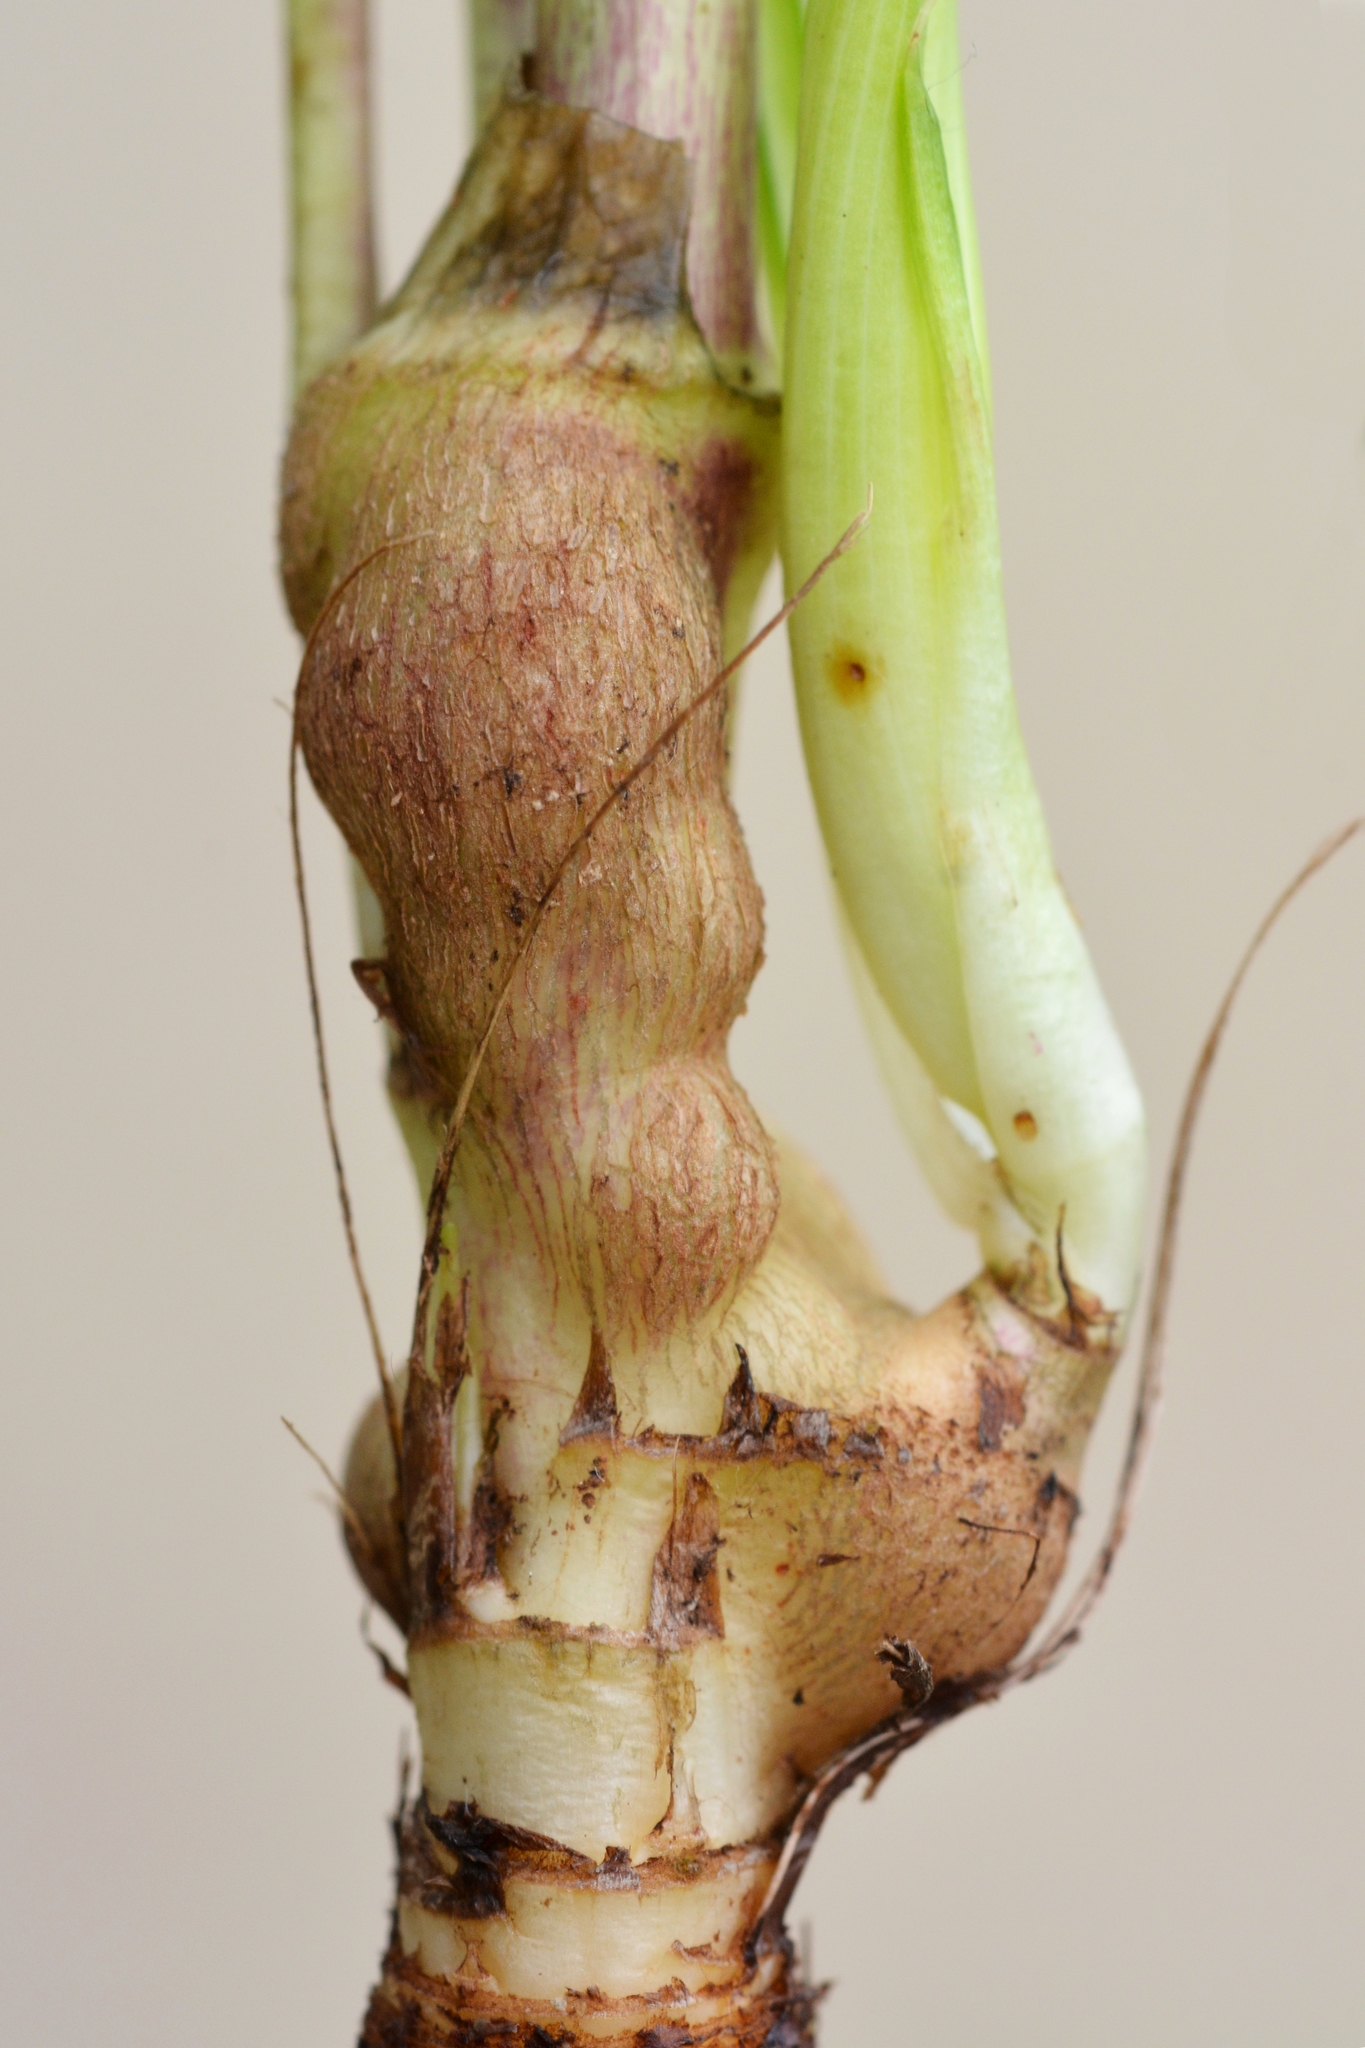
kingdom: Animalia
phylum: Arthropoda
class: Insecta
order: Hymenoptera
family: Cynipidae
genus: Aulacidea
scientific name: Aulacidea tragopogonis
